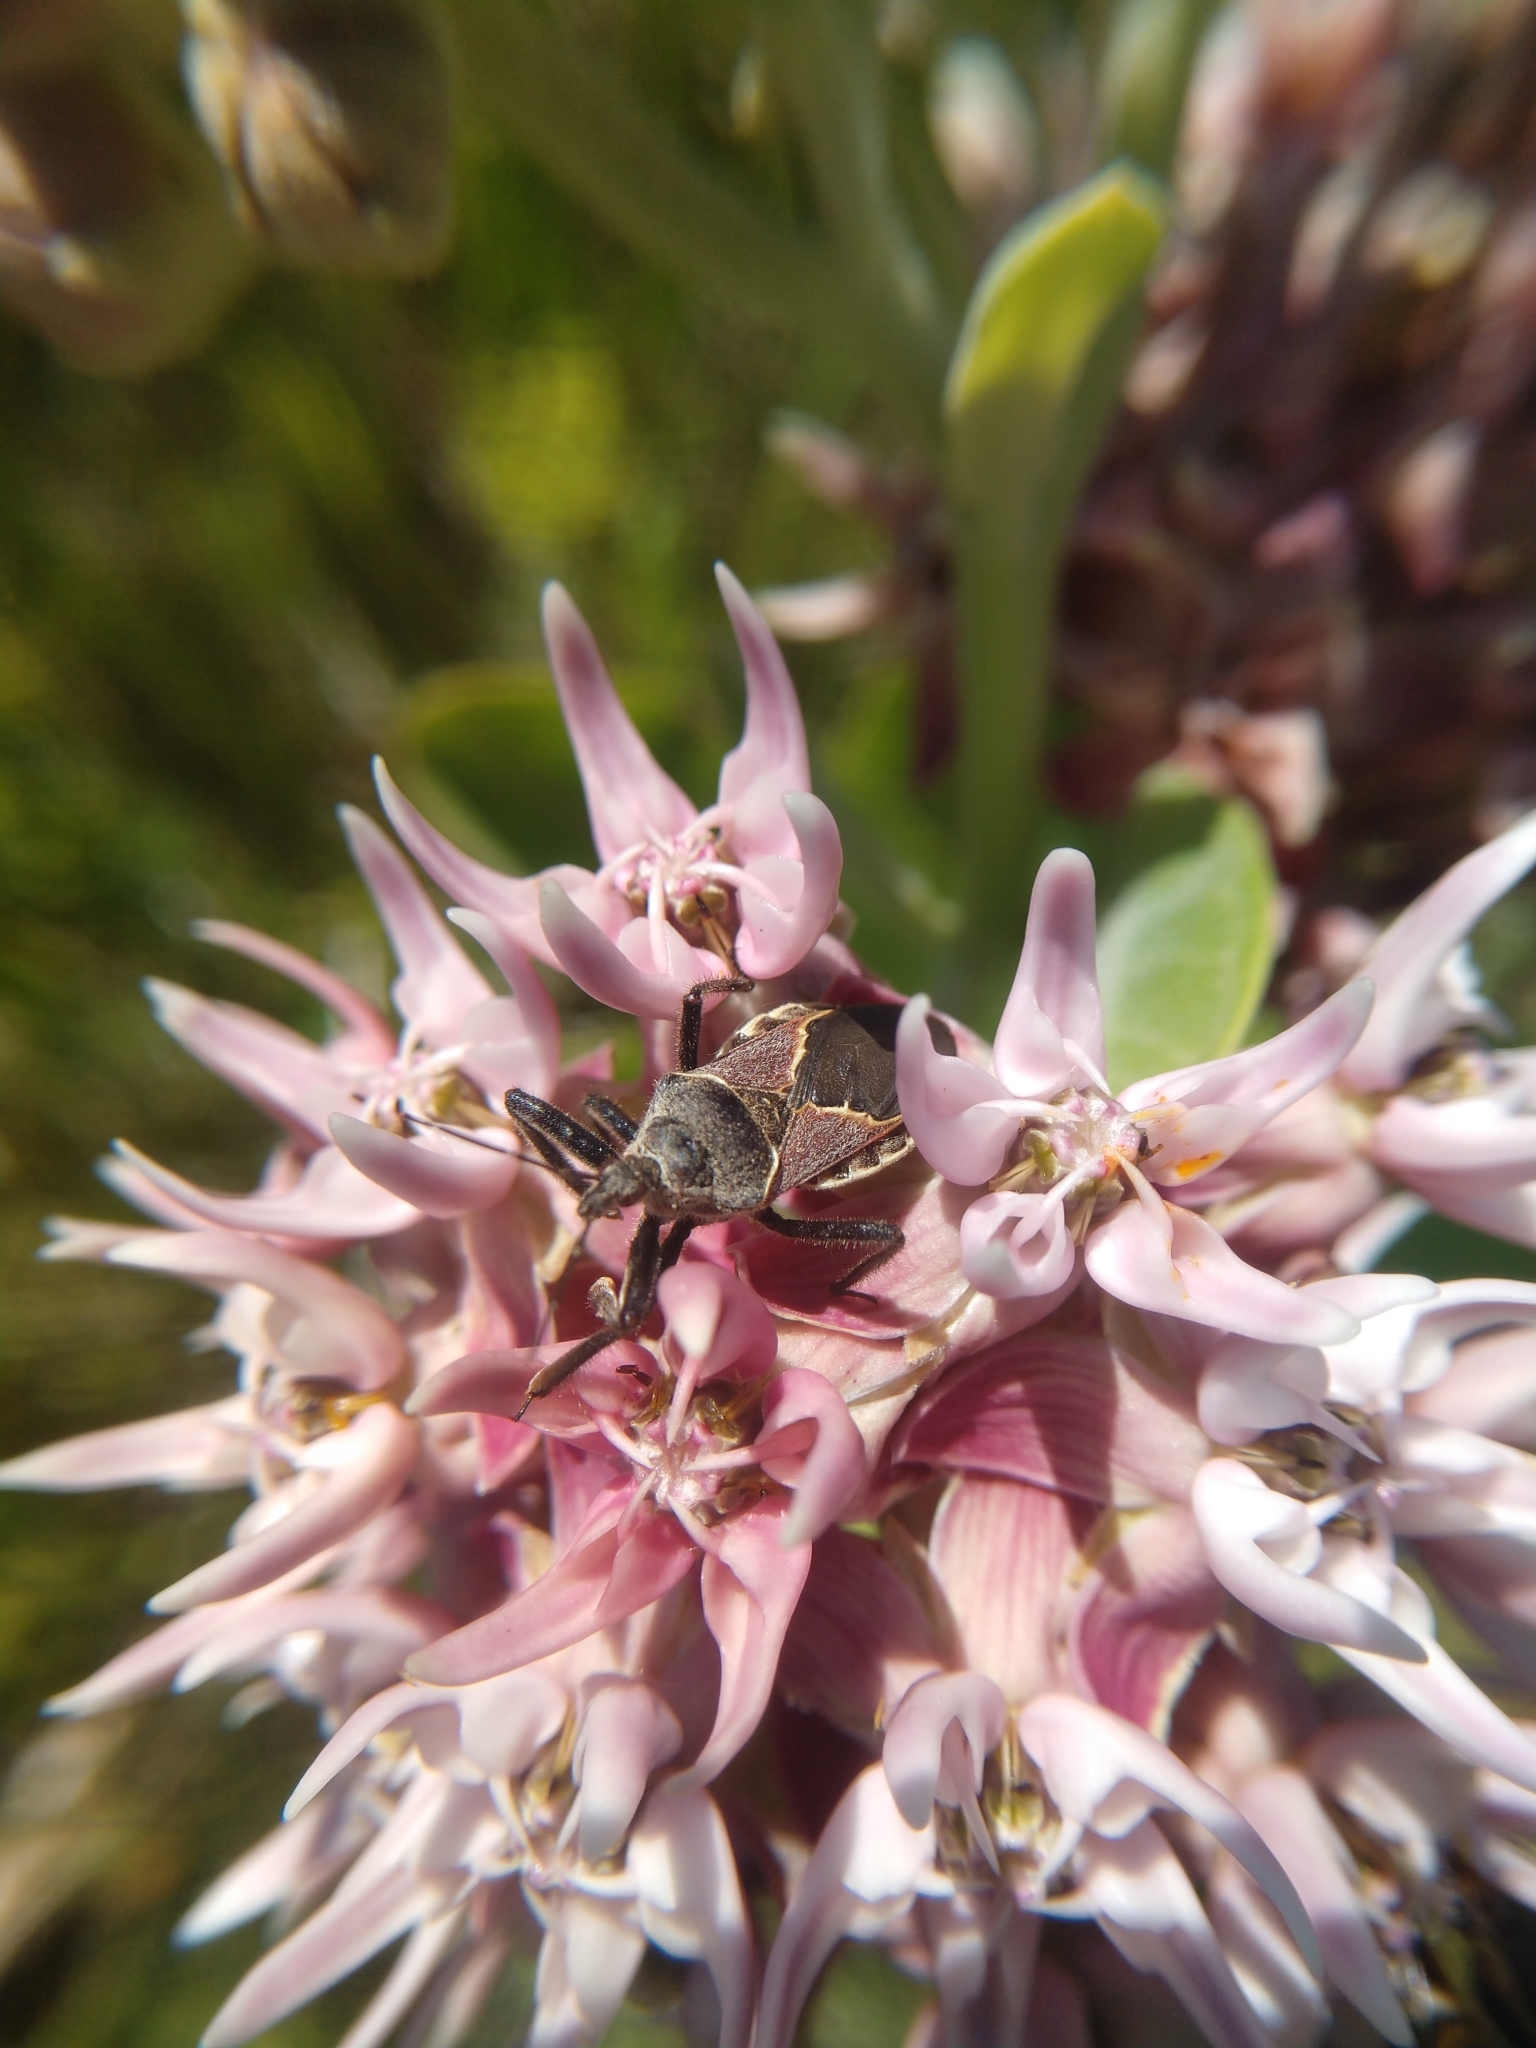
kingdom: Animalia
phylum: Arthropoda
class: Insecta
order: Hemiptera
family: Reduviidae
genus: Apiomerus
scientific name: Apiomerus spissipes
